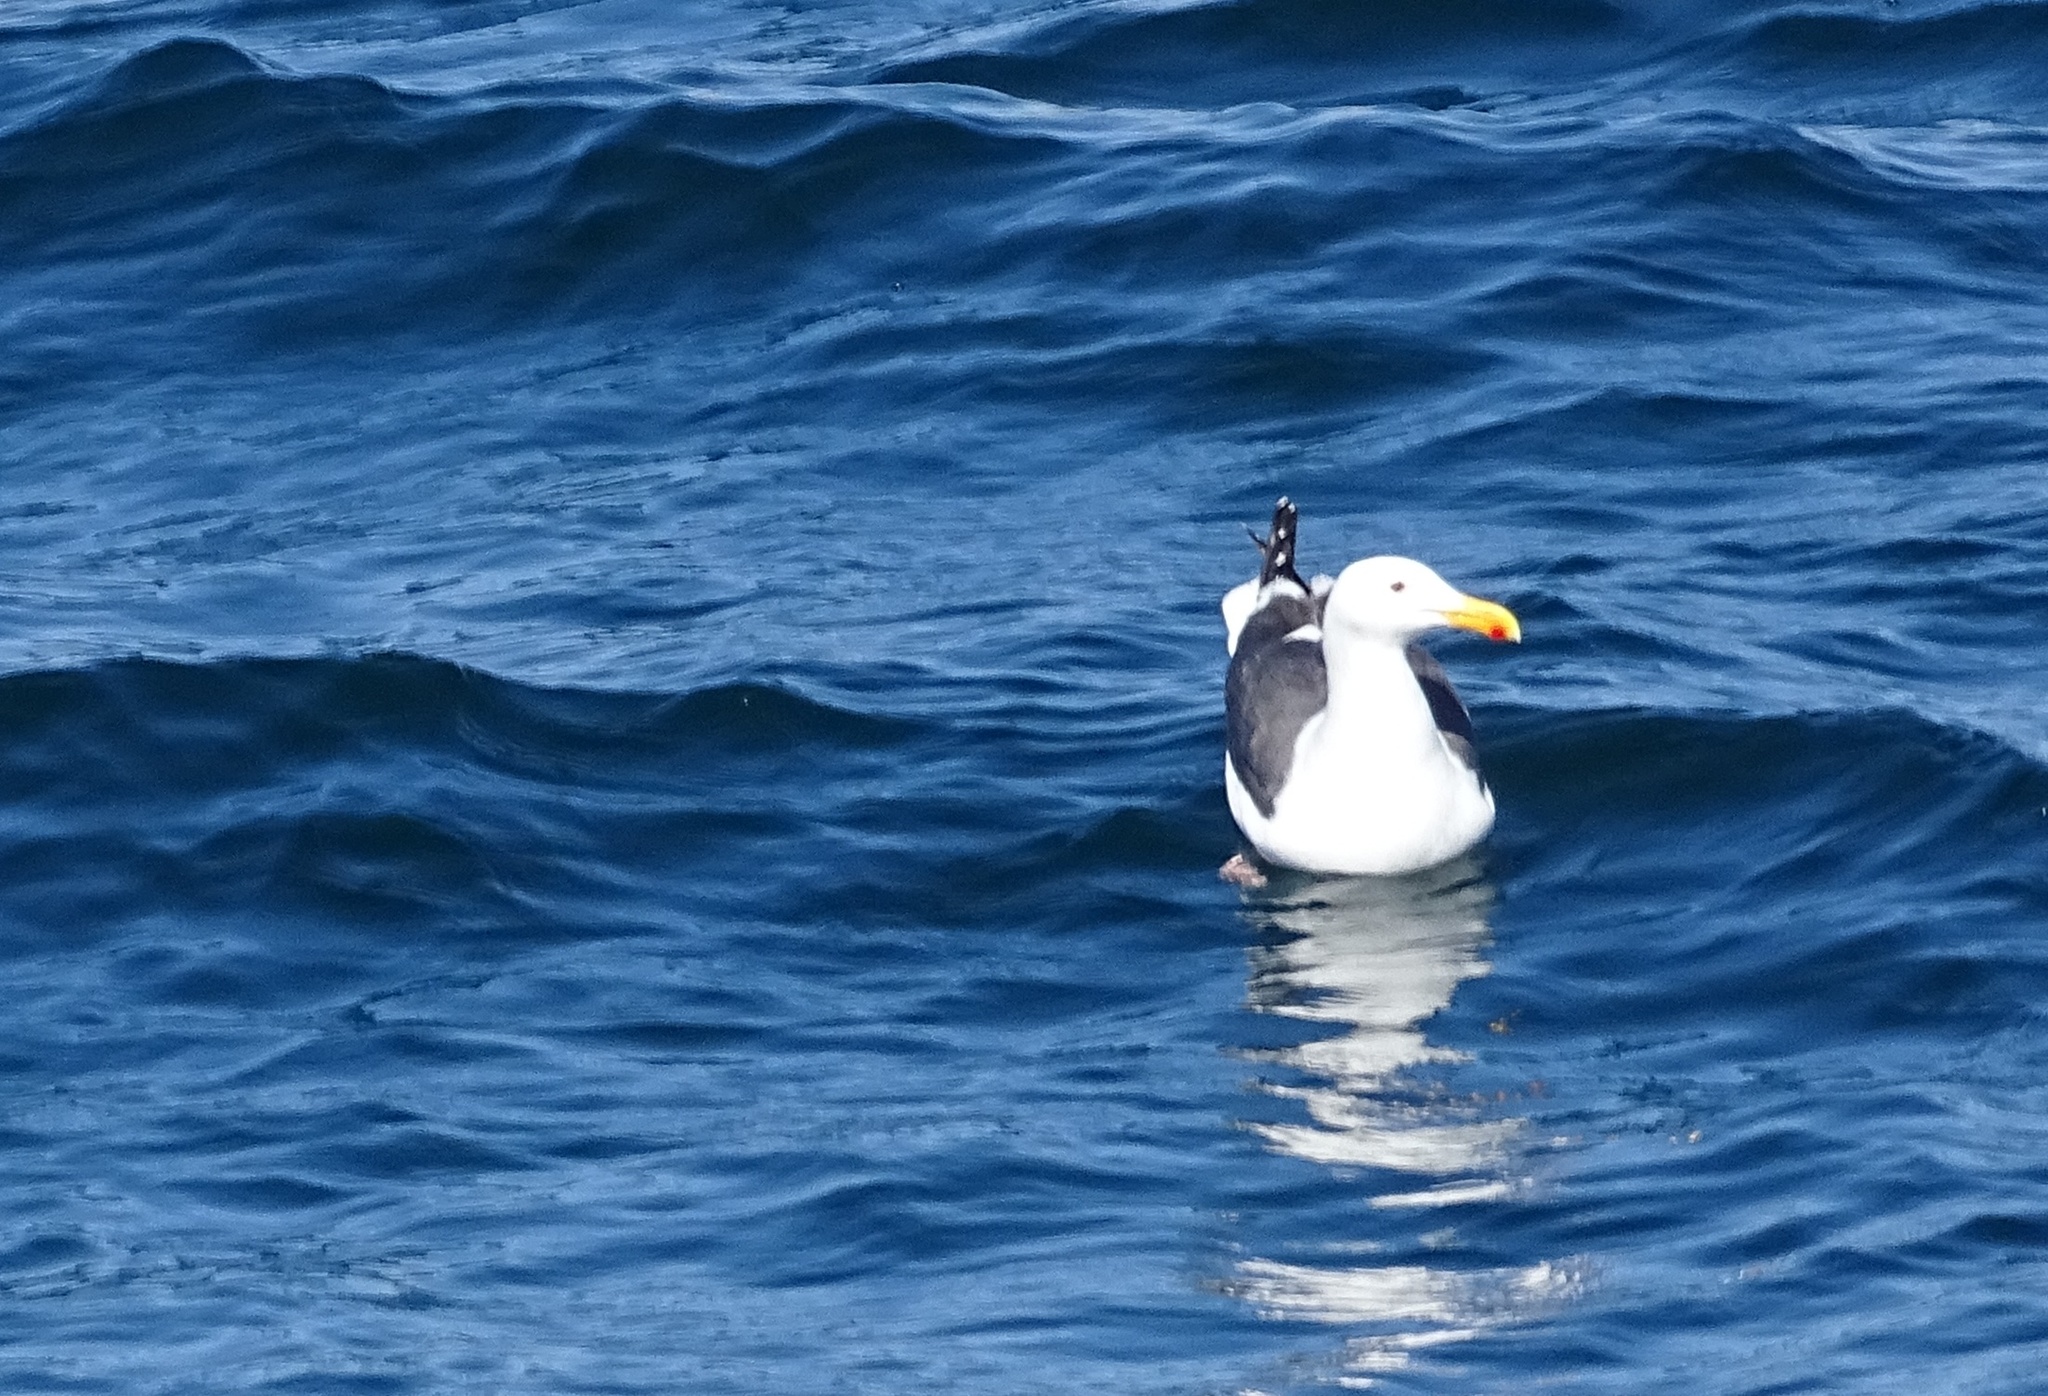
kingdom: Animalia
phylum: Chordata
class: Aves
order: Charadriiformes
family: Laridae
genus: Larus
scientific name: Larus occidentalis
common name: Western gull
